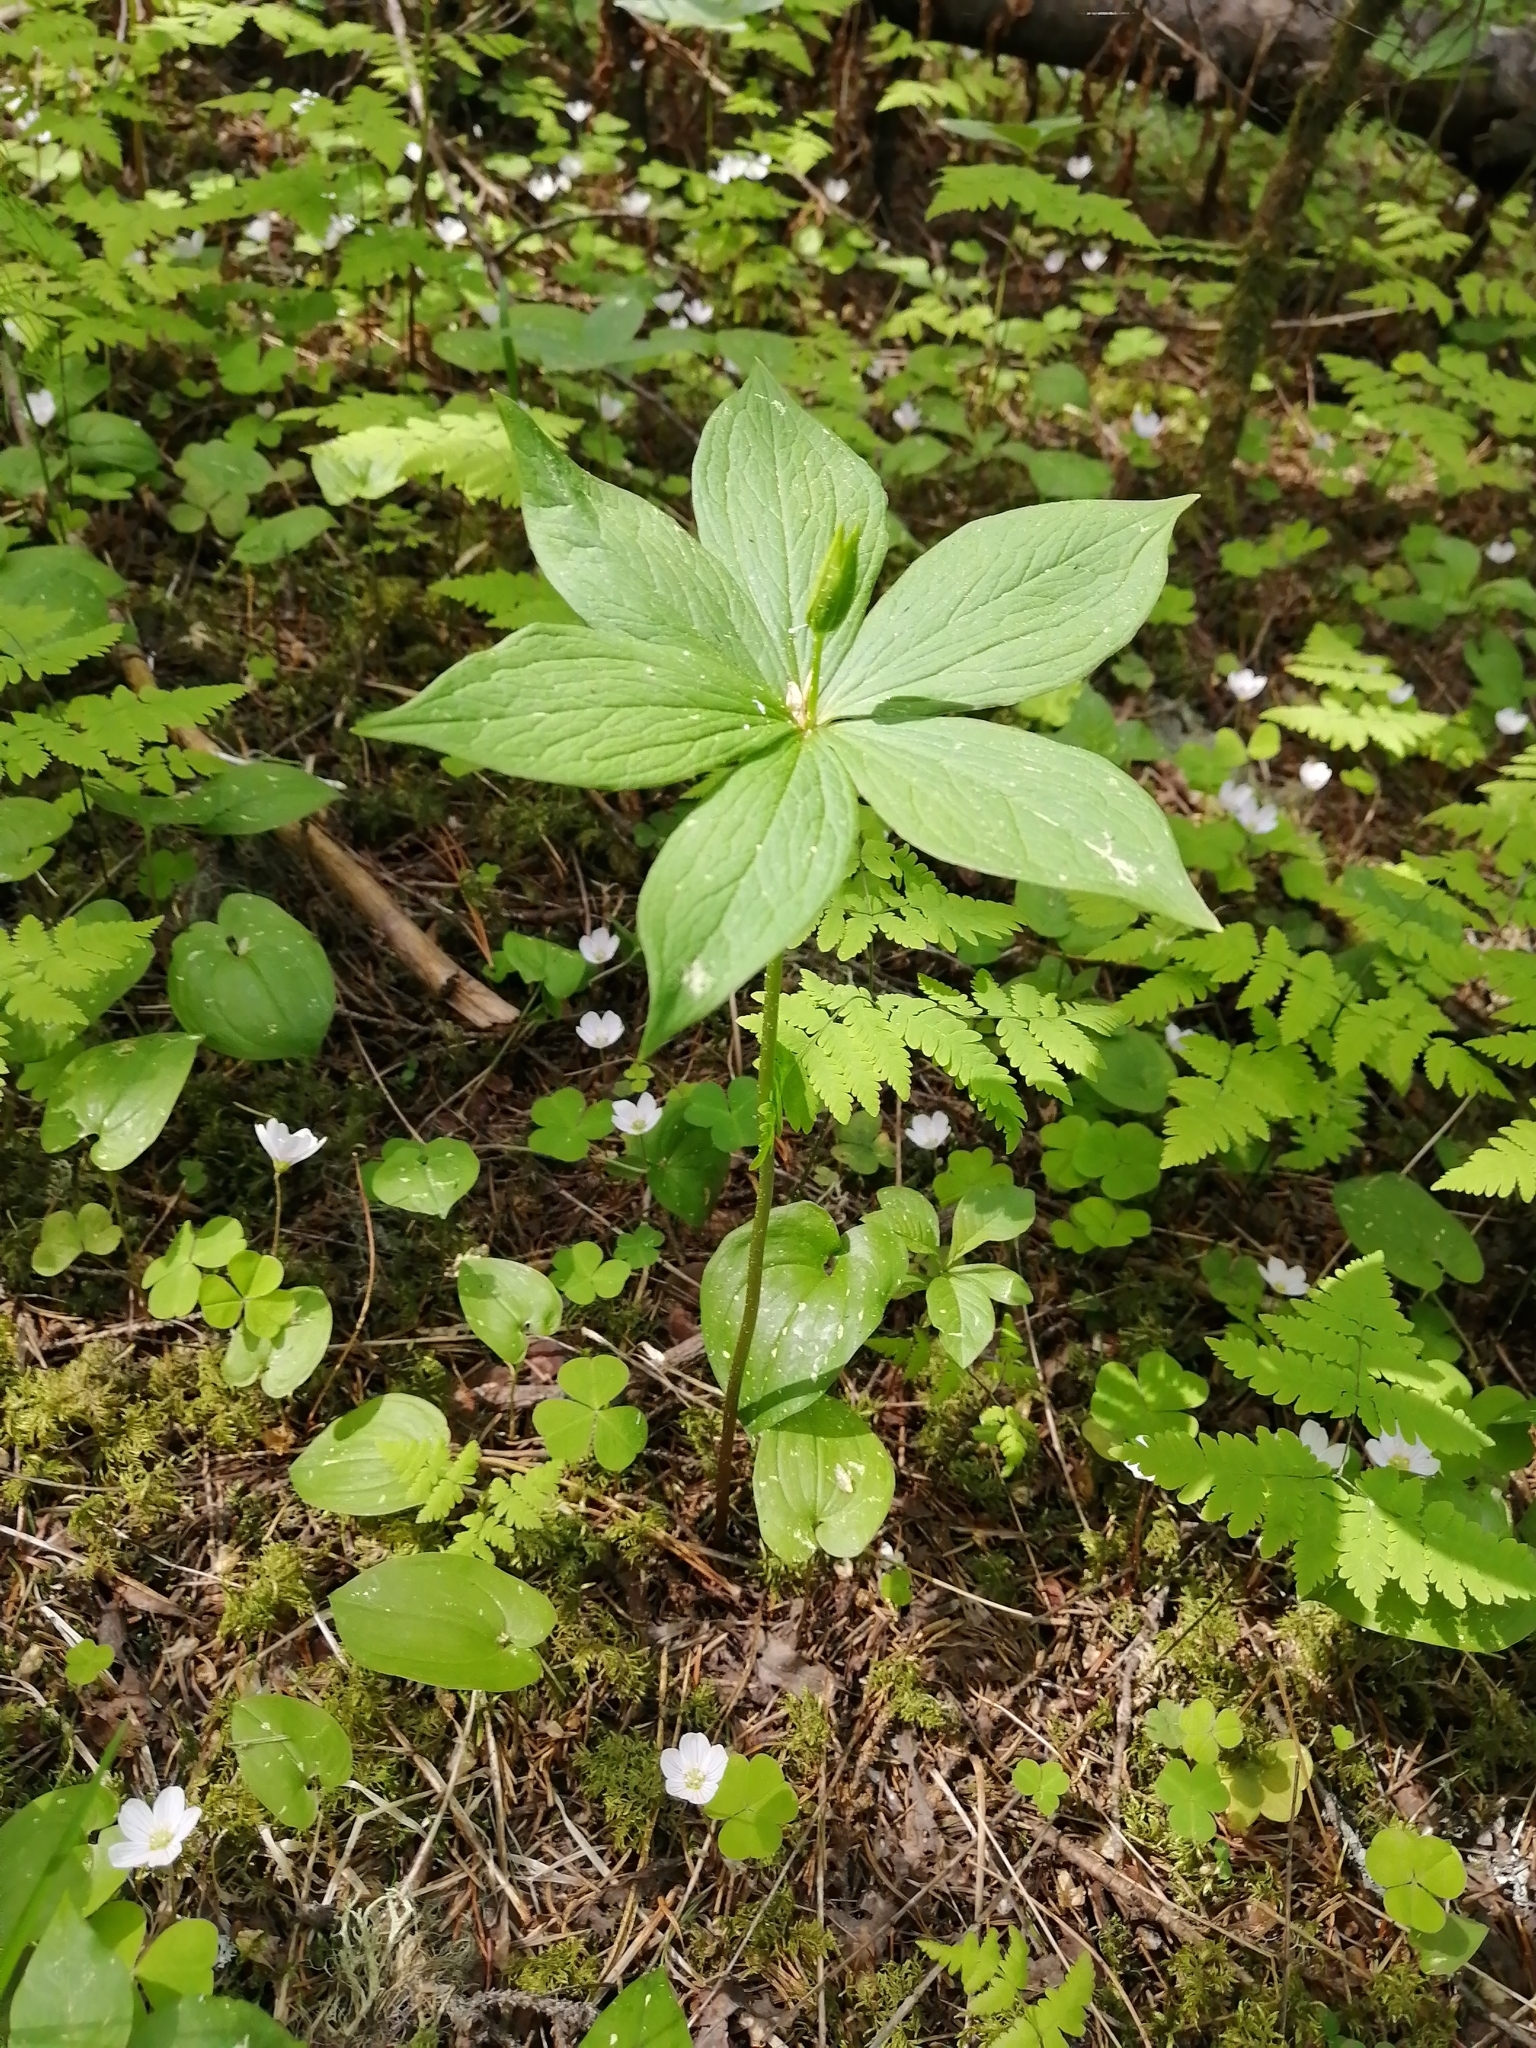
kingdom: Plantae
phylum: Tracheophyta
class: Liliopsida
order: Liliales
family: Melanthiaceae
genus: Paris
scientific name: Paris verticillata
